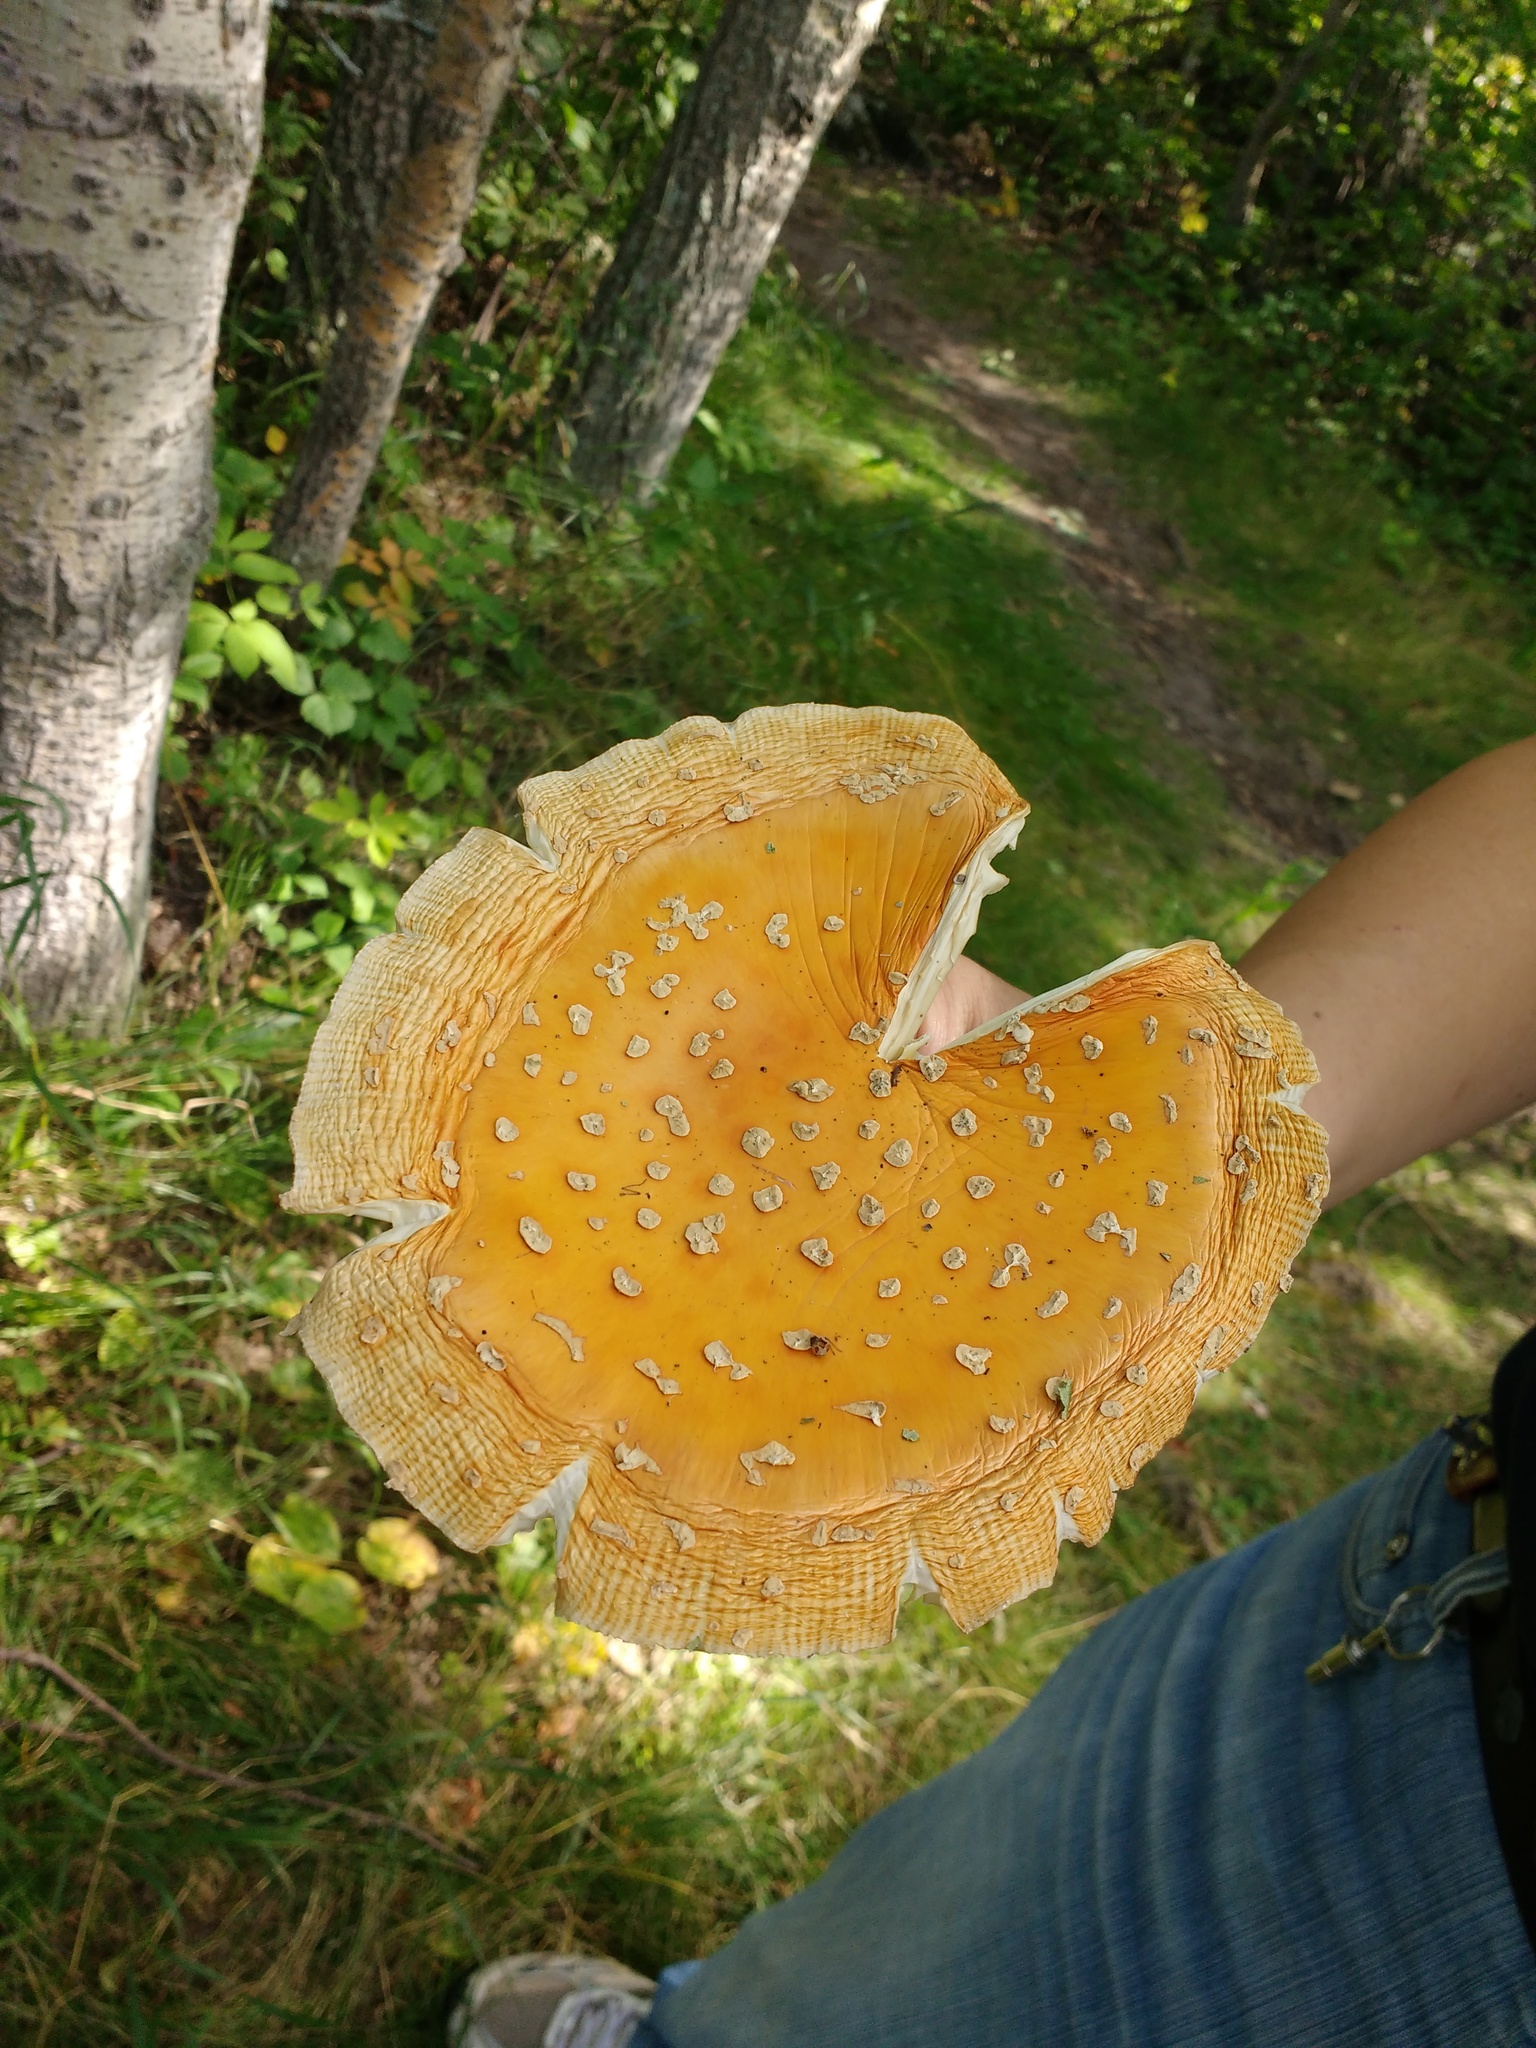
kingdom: Fungi
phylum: Basidiomycota
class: Agaricomycetes
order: Agaricales
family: Amanitaceae
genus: Amanita
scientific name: Amanita muscaria
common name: Fly agaric
